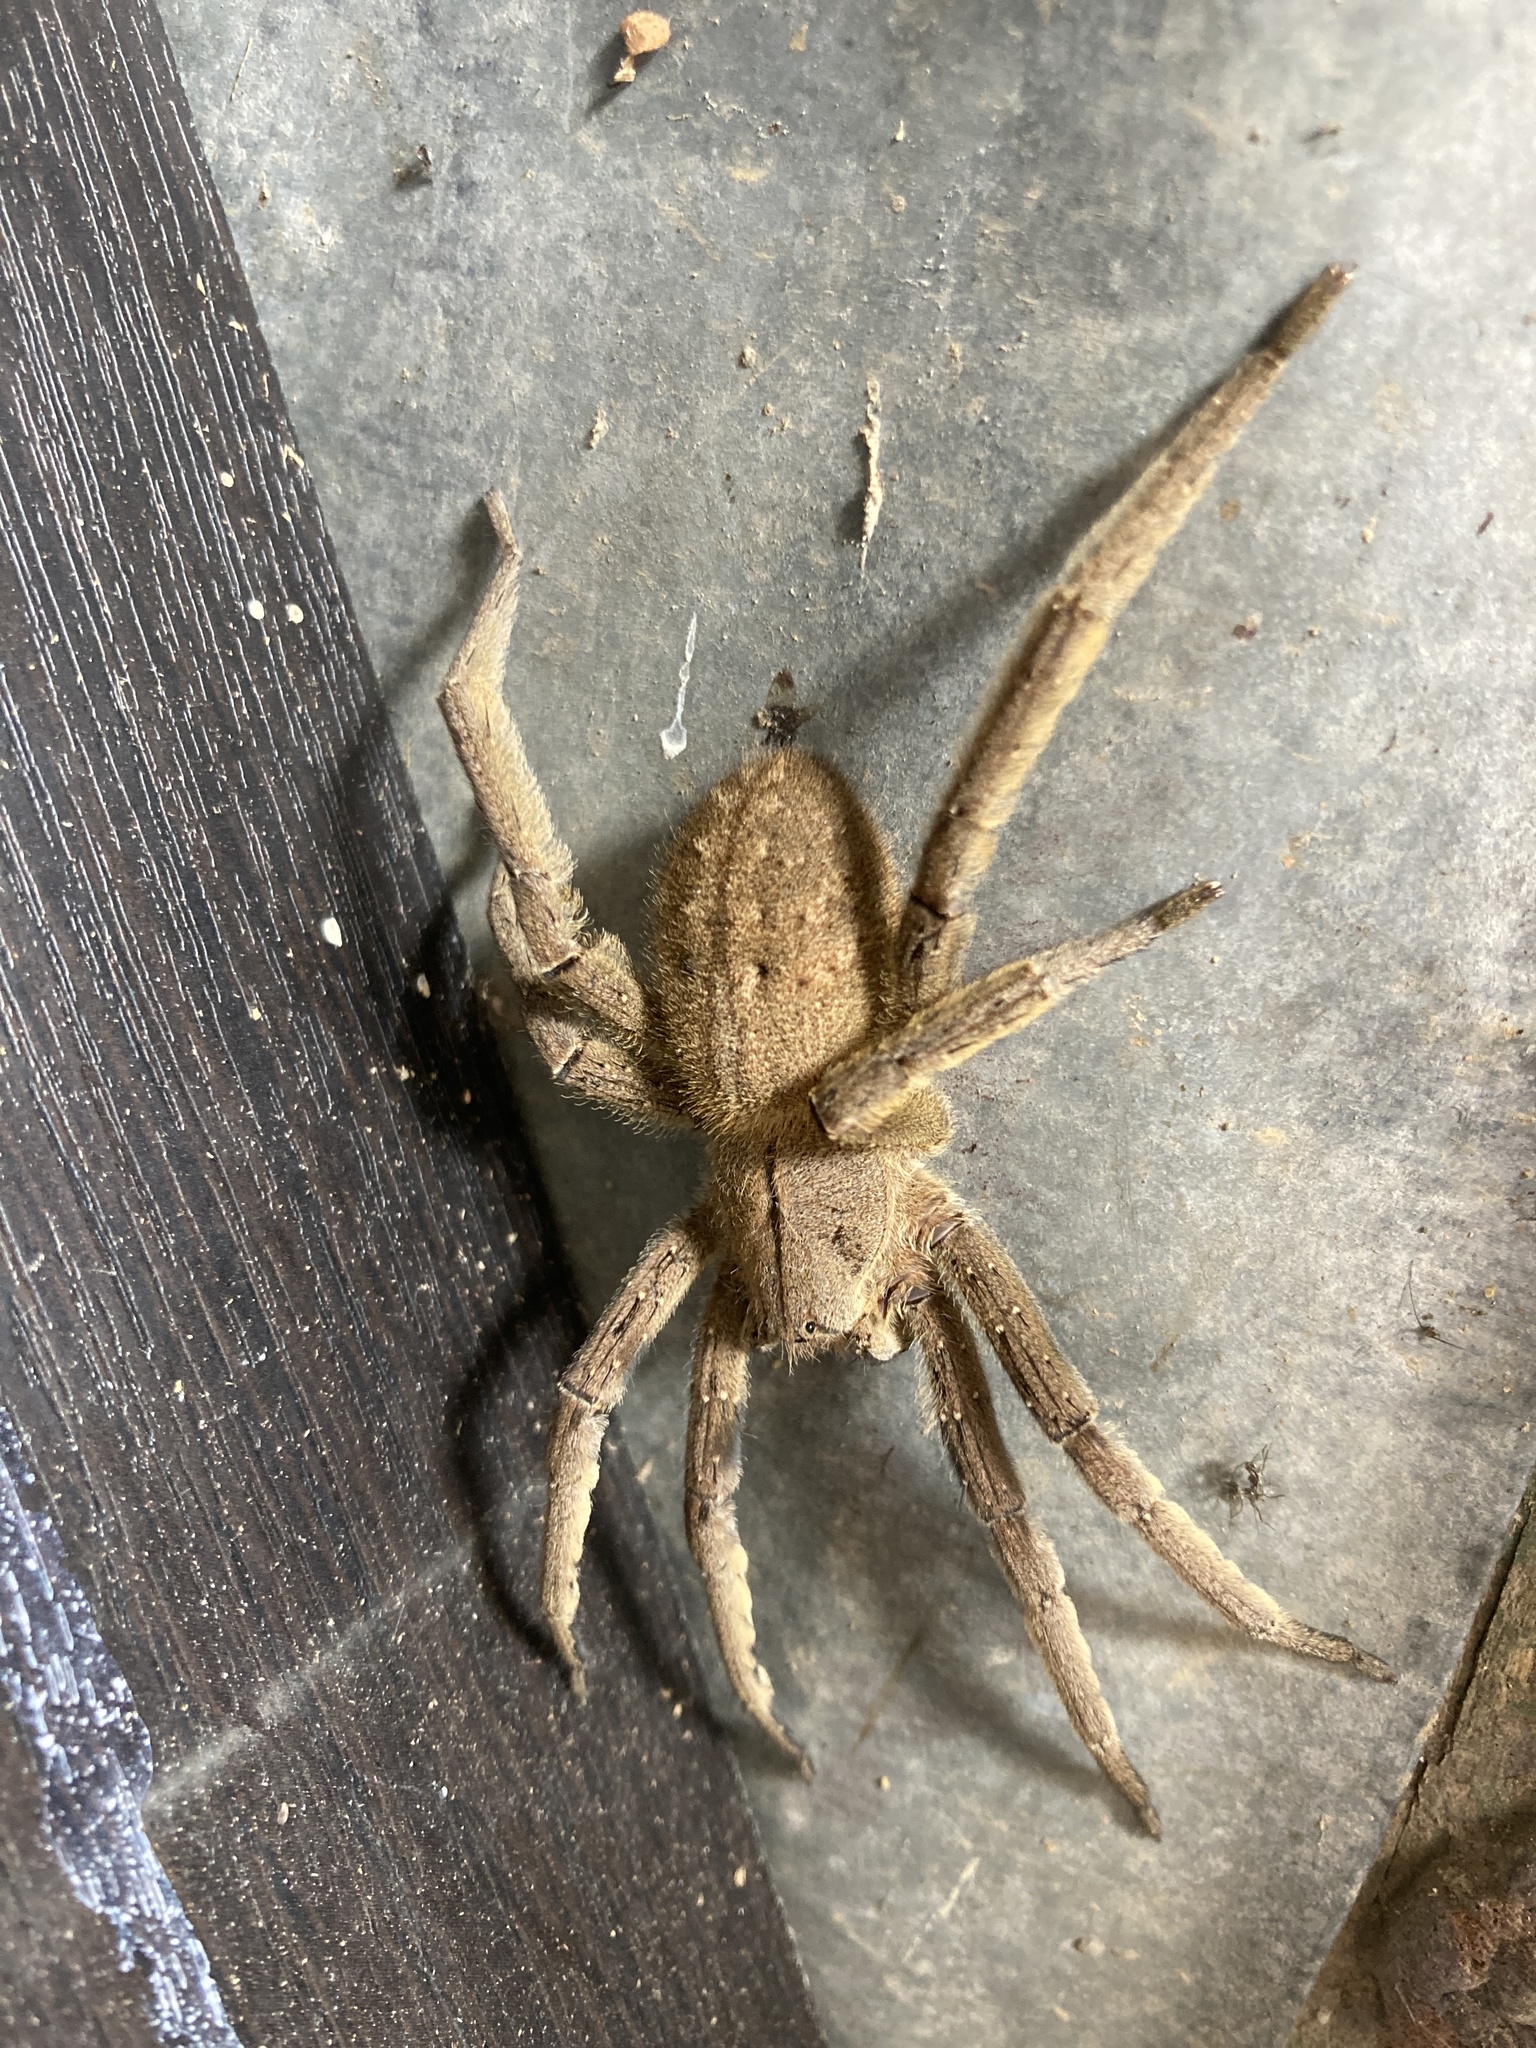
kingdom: Animalia
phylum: Arthropoda
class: Arachnida
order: Araneae
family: Ctenidae
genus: Phoneutria
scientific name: Phoneutria depilata
